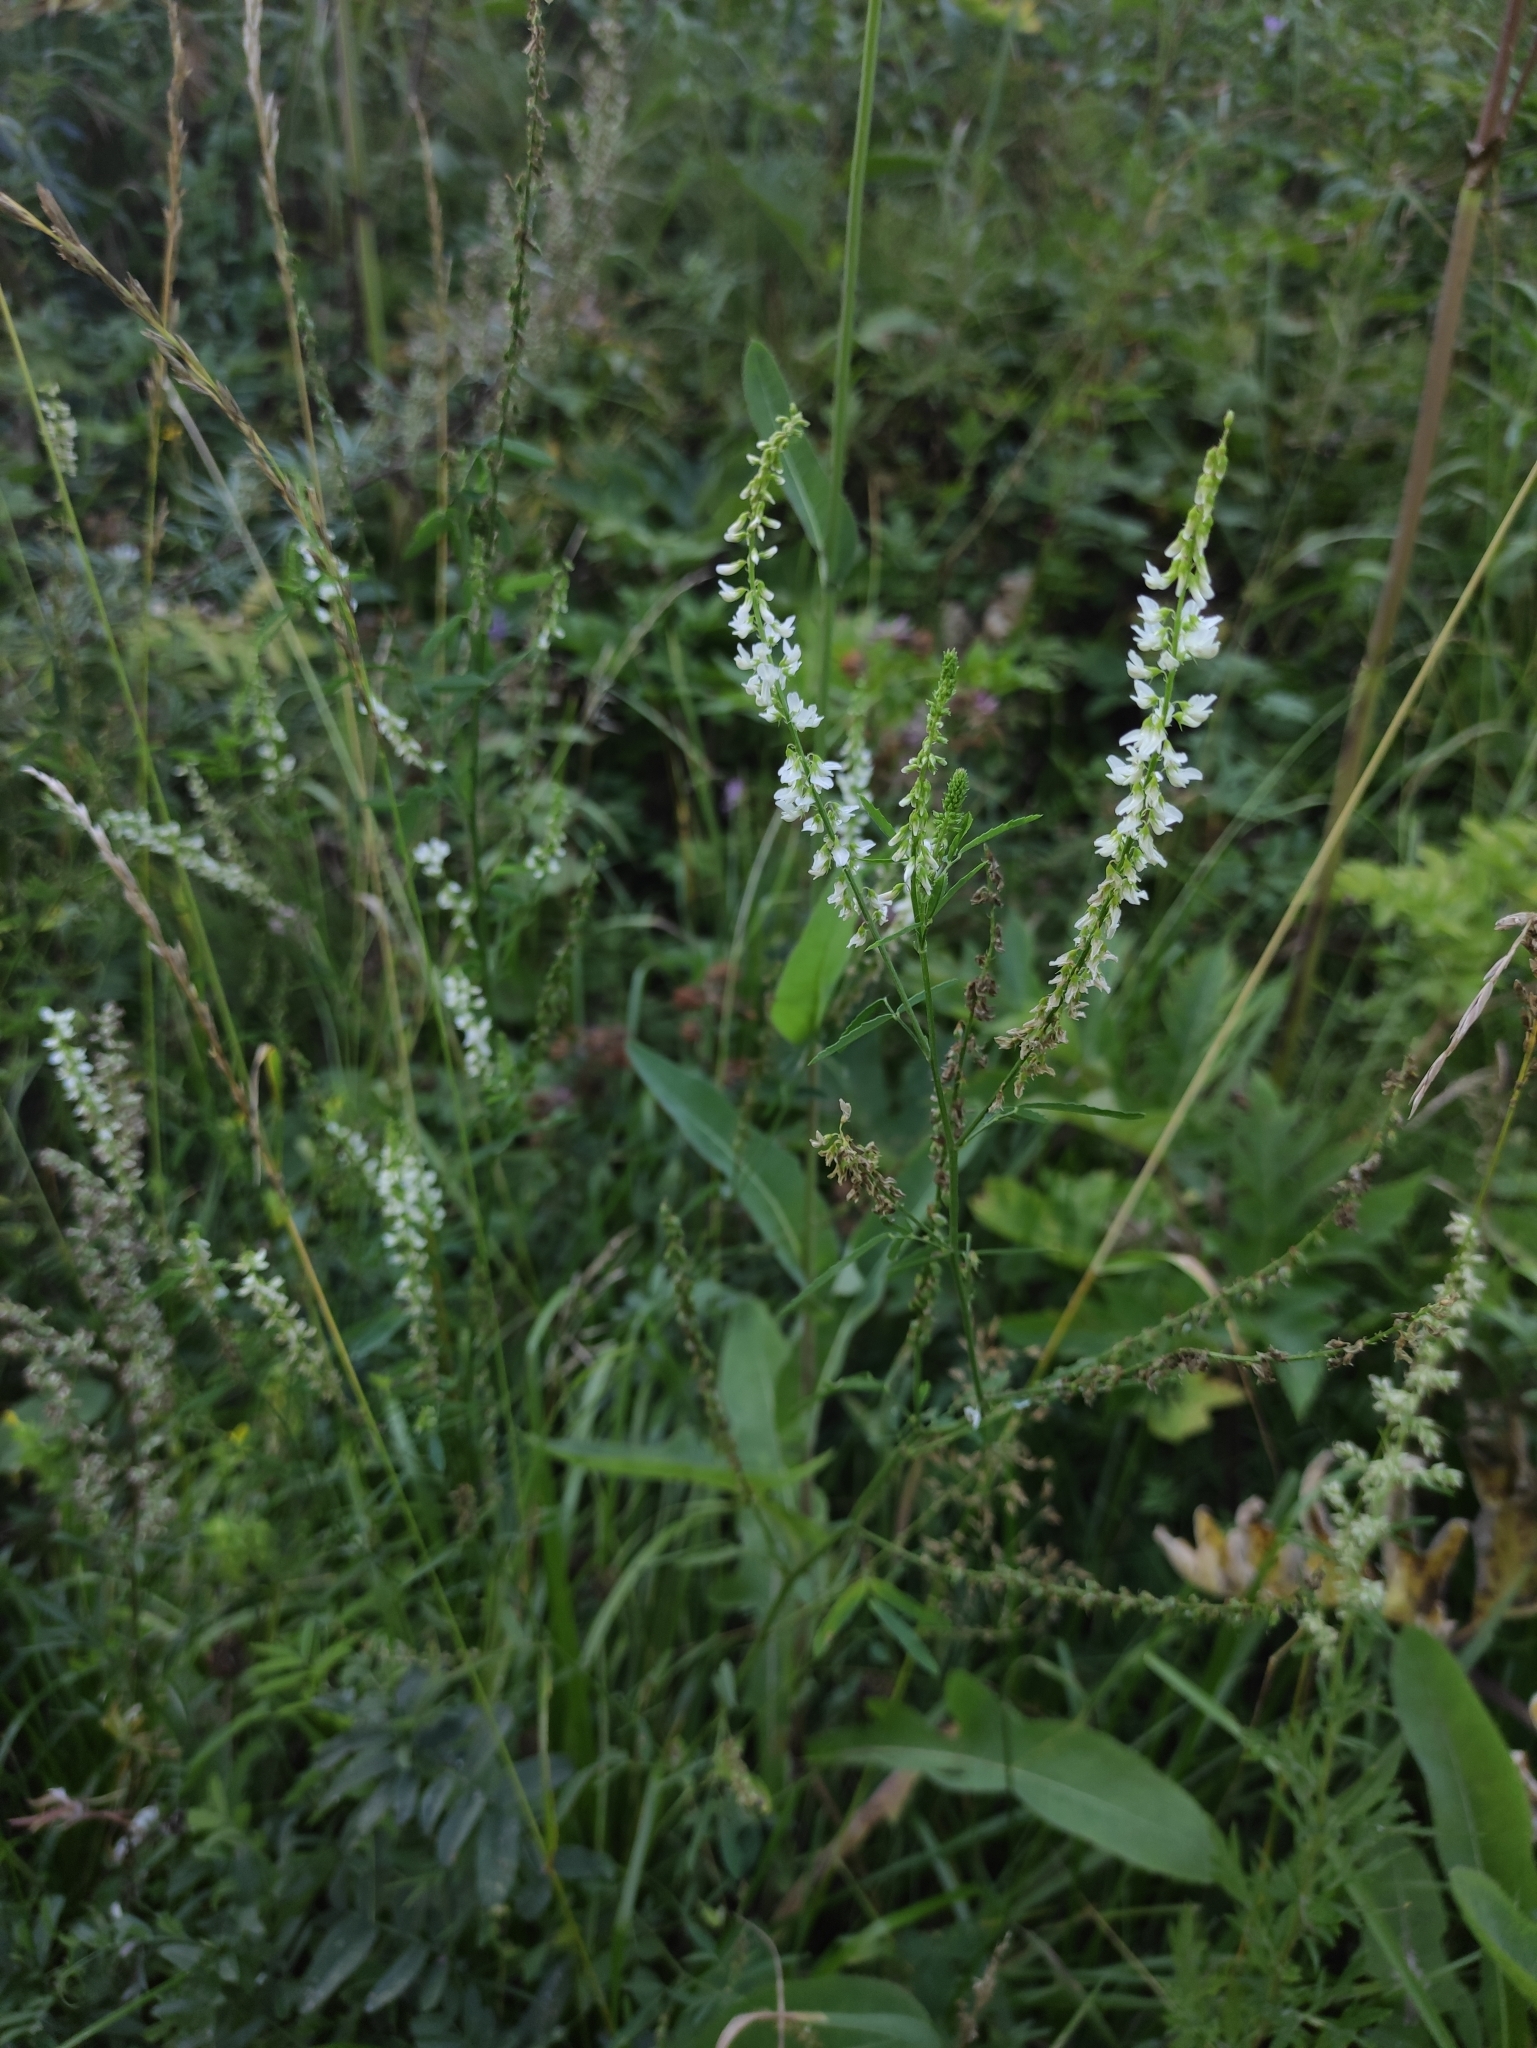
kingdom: Plantae
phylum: Tracheophyta
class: Magnoliopsida
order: Fabales
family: Fabaceae
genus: Melilotus
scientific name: Melilotus albus
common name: White melilot
